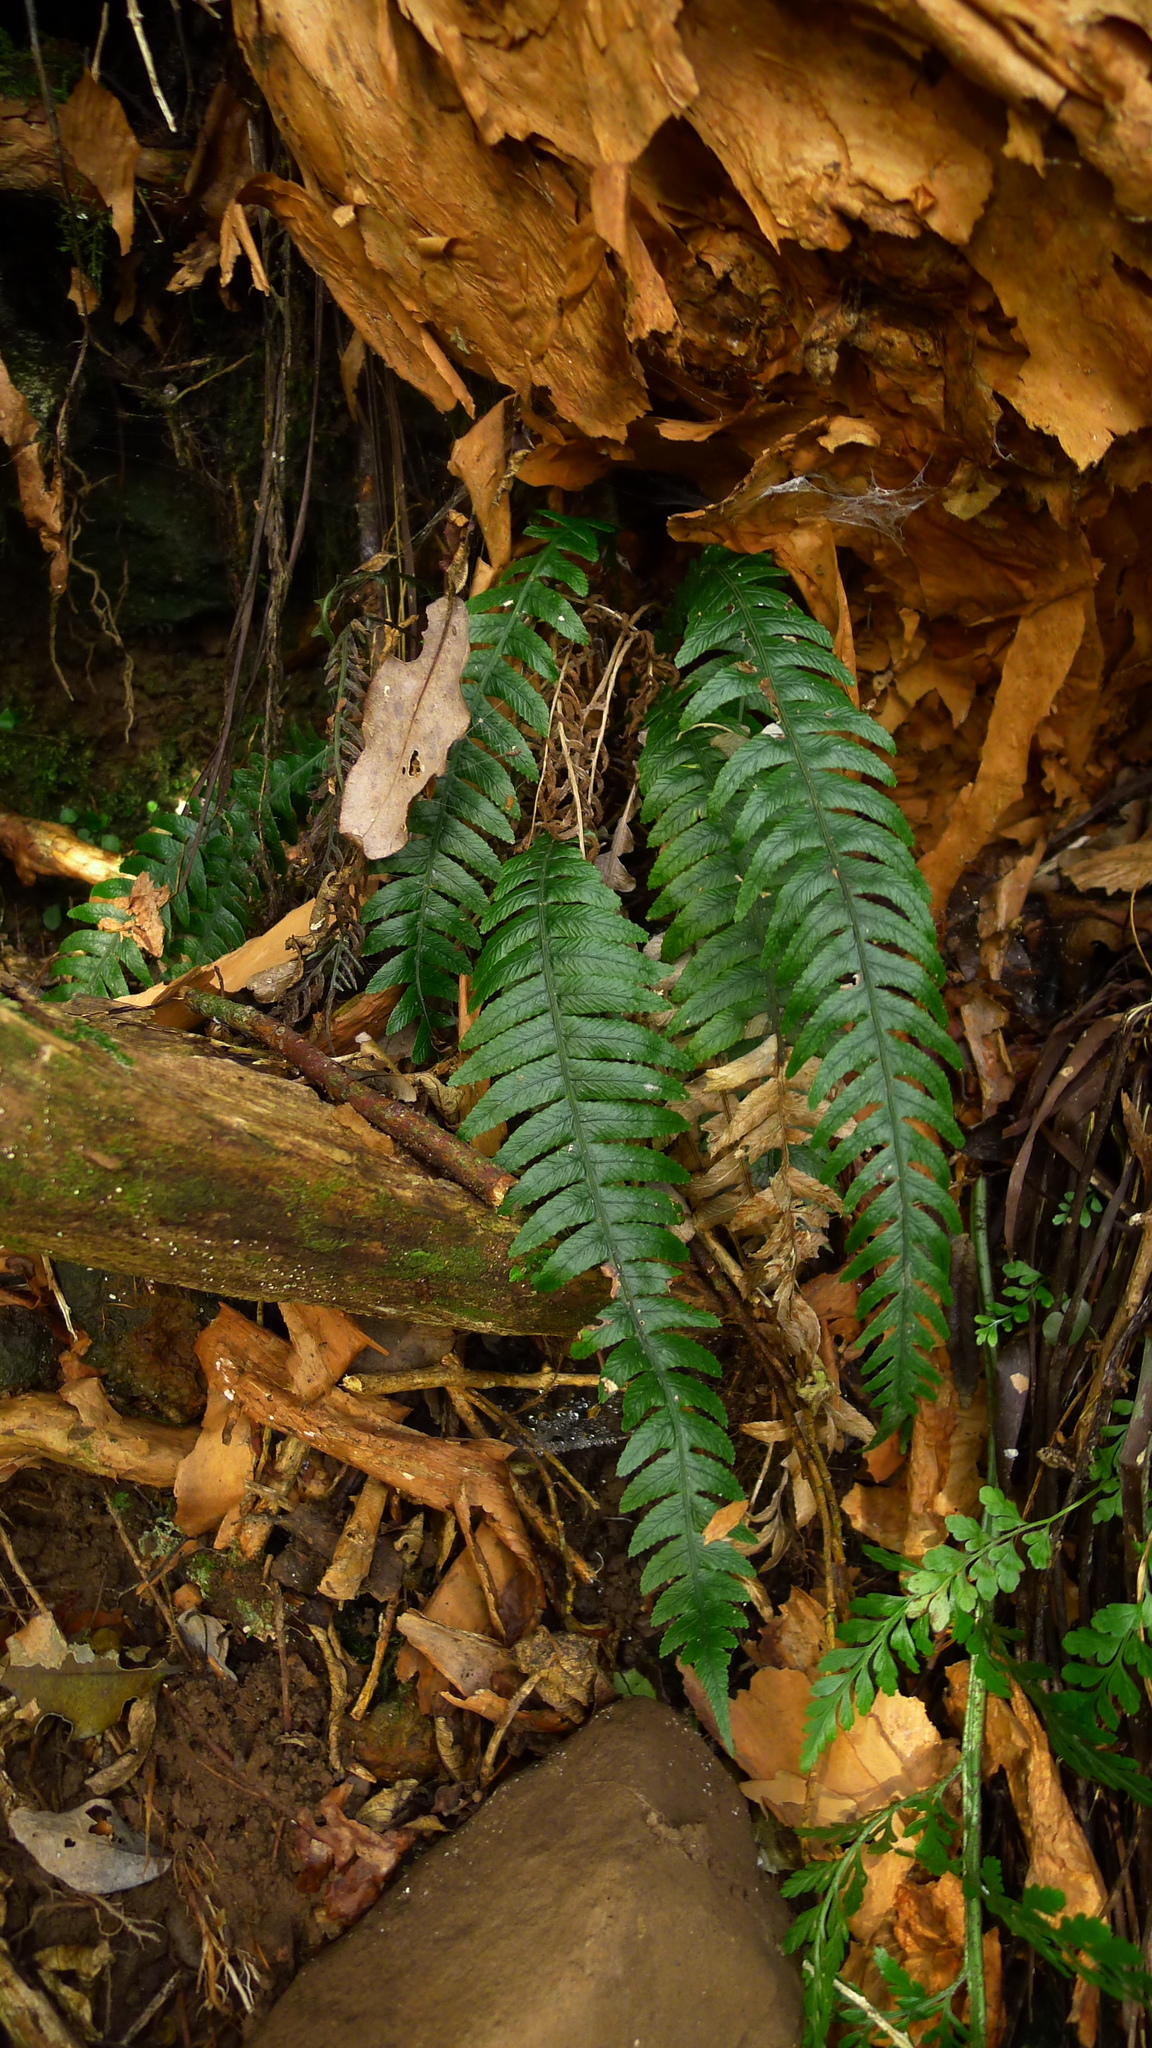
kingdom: Plantae
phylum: Tracheophyta
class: Polypodiopsida
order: Polypodiales
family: Blechnaceae
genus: Austroblechnum
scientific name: Austroblechnum lanceolatum
